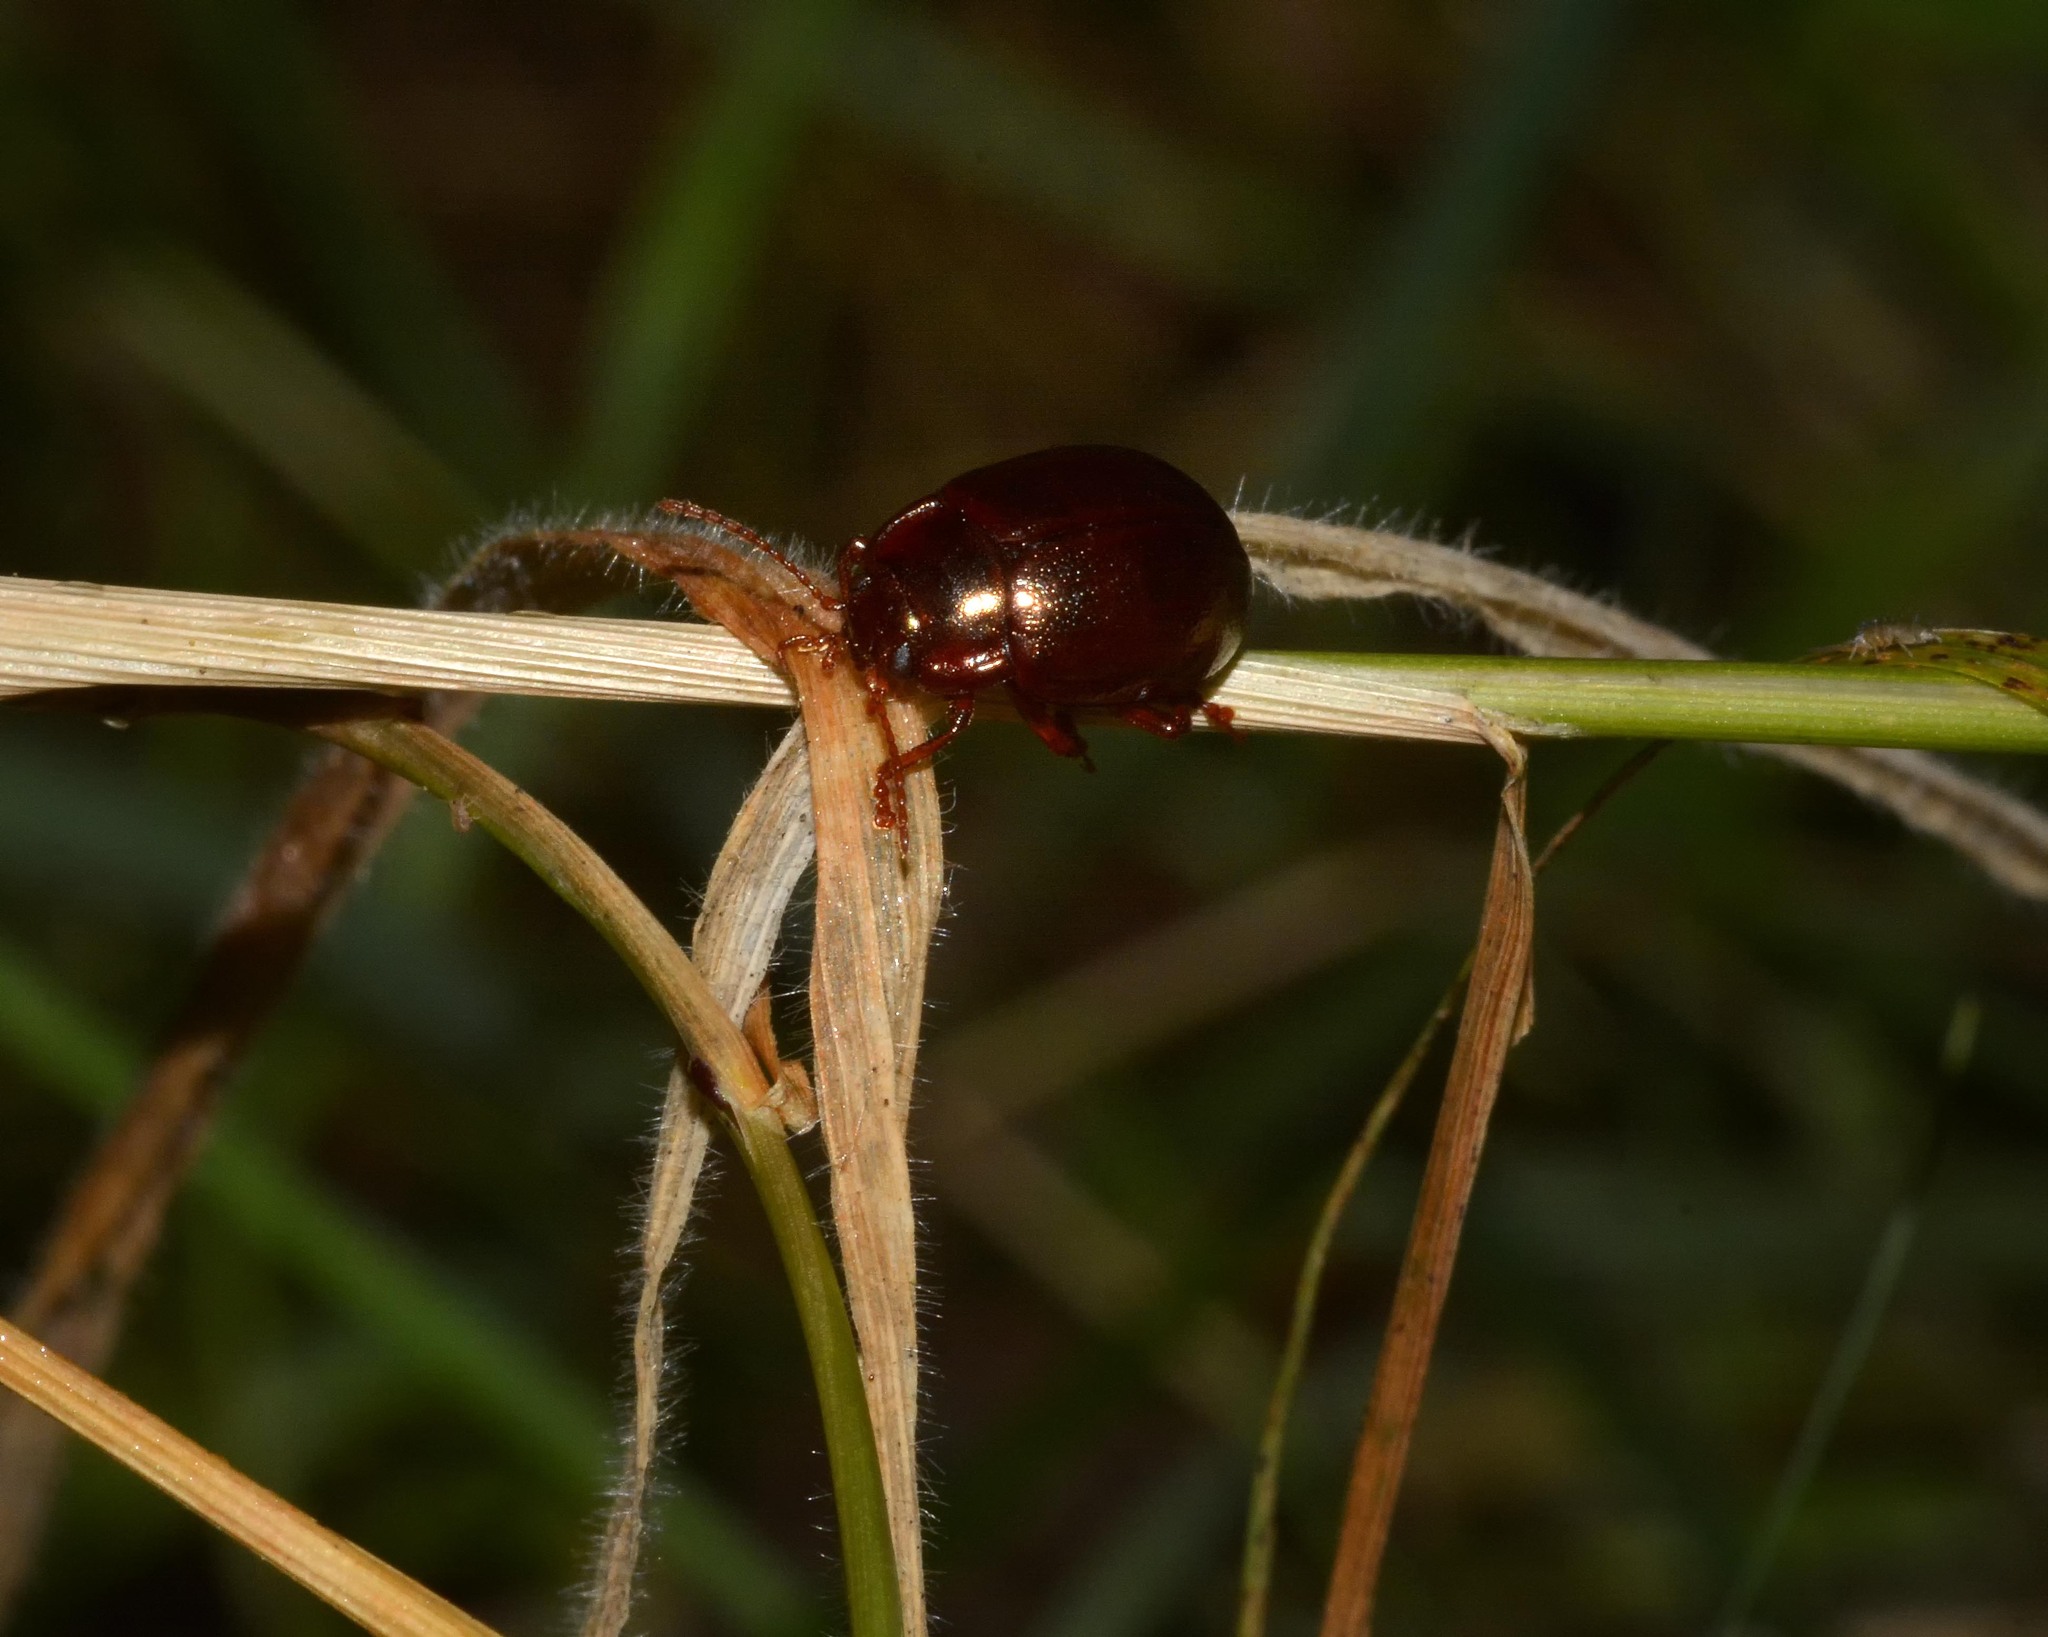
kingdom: Animalia
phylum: Arthropoda
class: Insecta
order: Coleoptera
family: Chrysomelidae
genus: Chrysolina
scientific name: Chrysolina staphylaea
